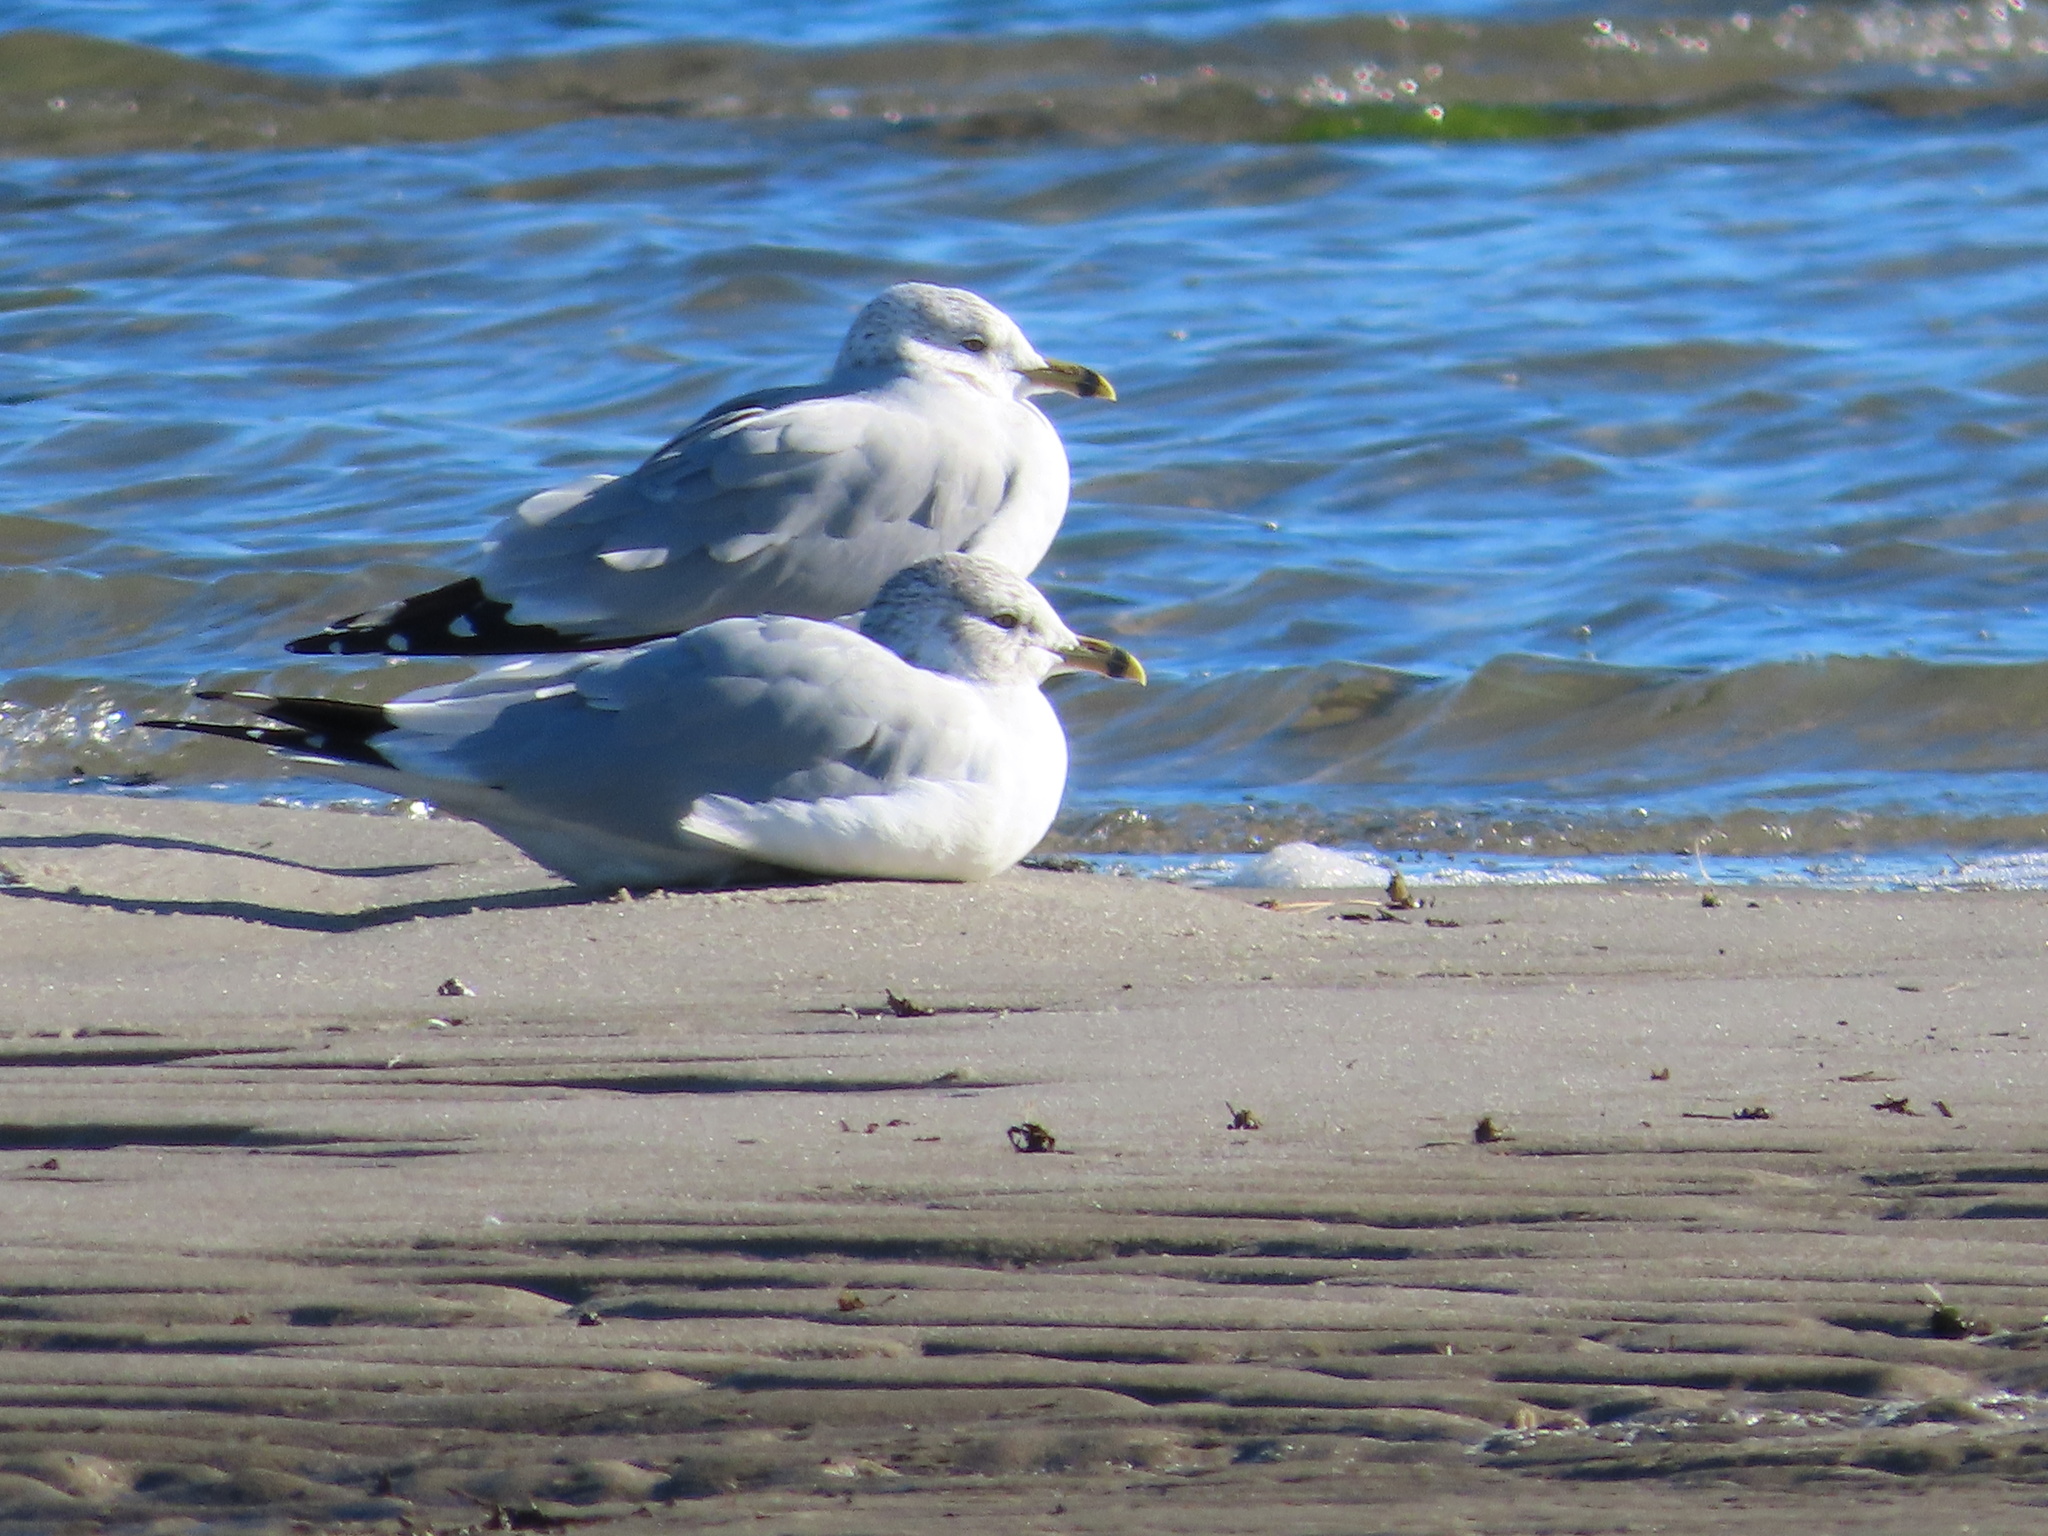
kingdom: Animalia
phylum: Chordata
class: Aves
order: Charadriiformes
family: Laridae
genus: Larus
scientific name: Larus delawarensis
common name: Ring-billed gull
